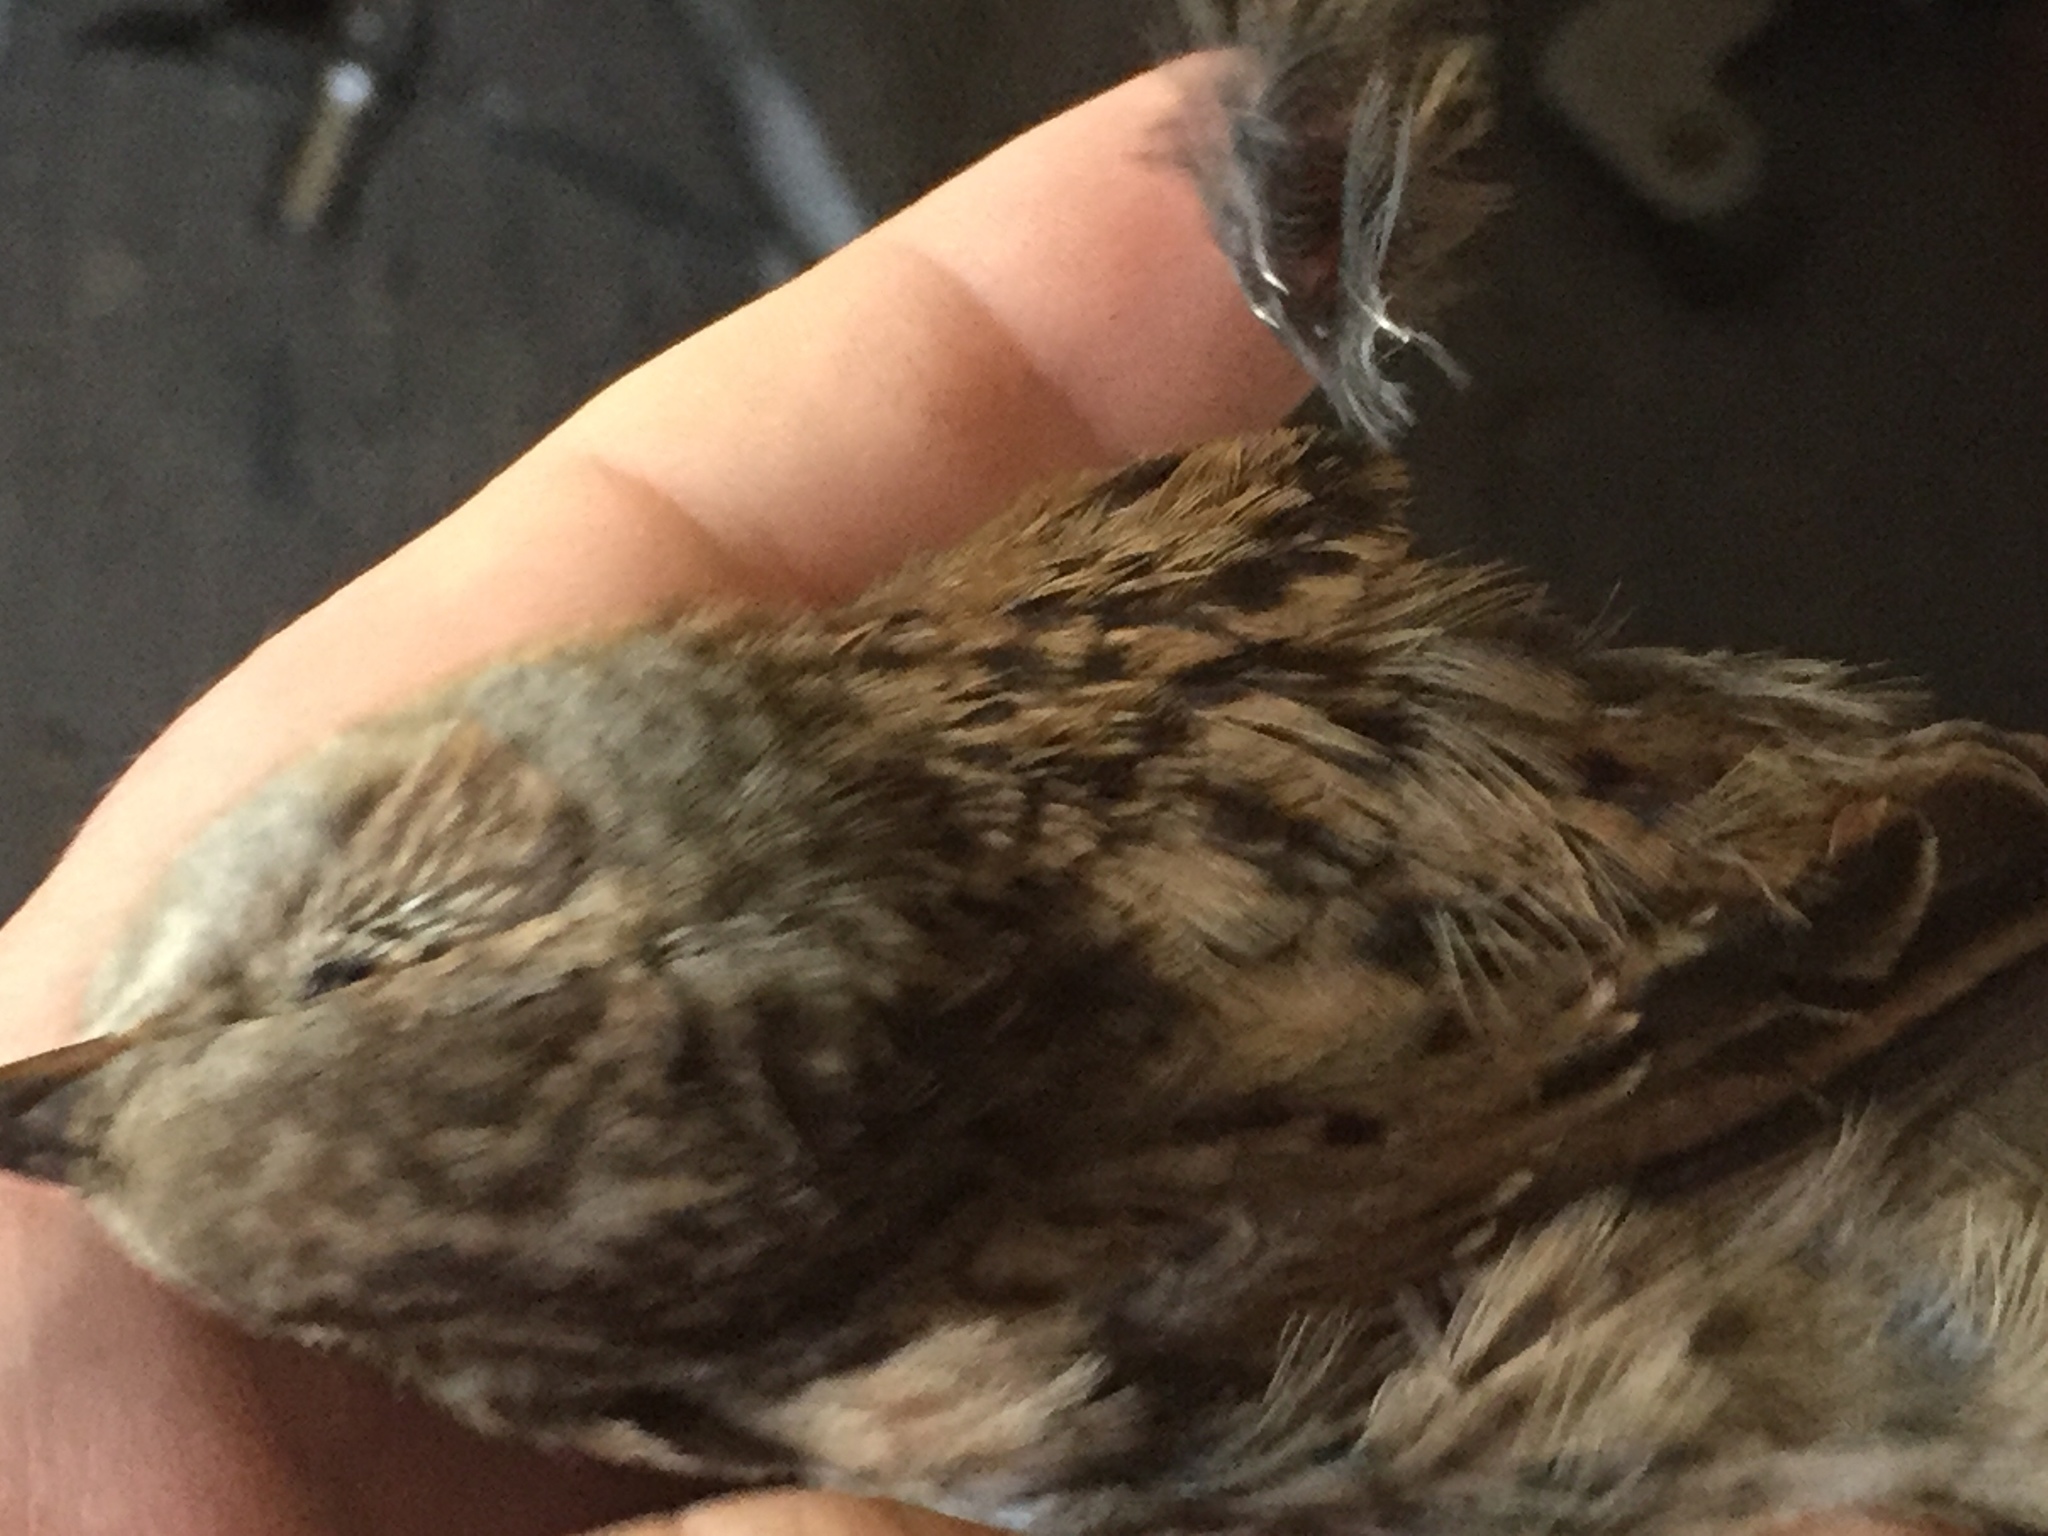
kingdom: Animalia
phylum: Chordata
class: Aves
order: Passeriformes
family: Prunellidae
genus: Prunella
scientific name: Prunella modularis
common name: Dunnock
